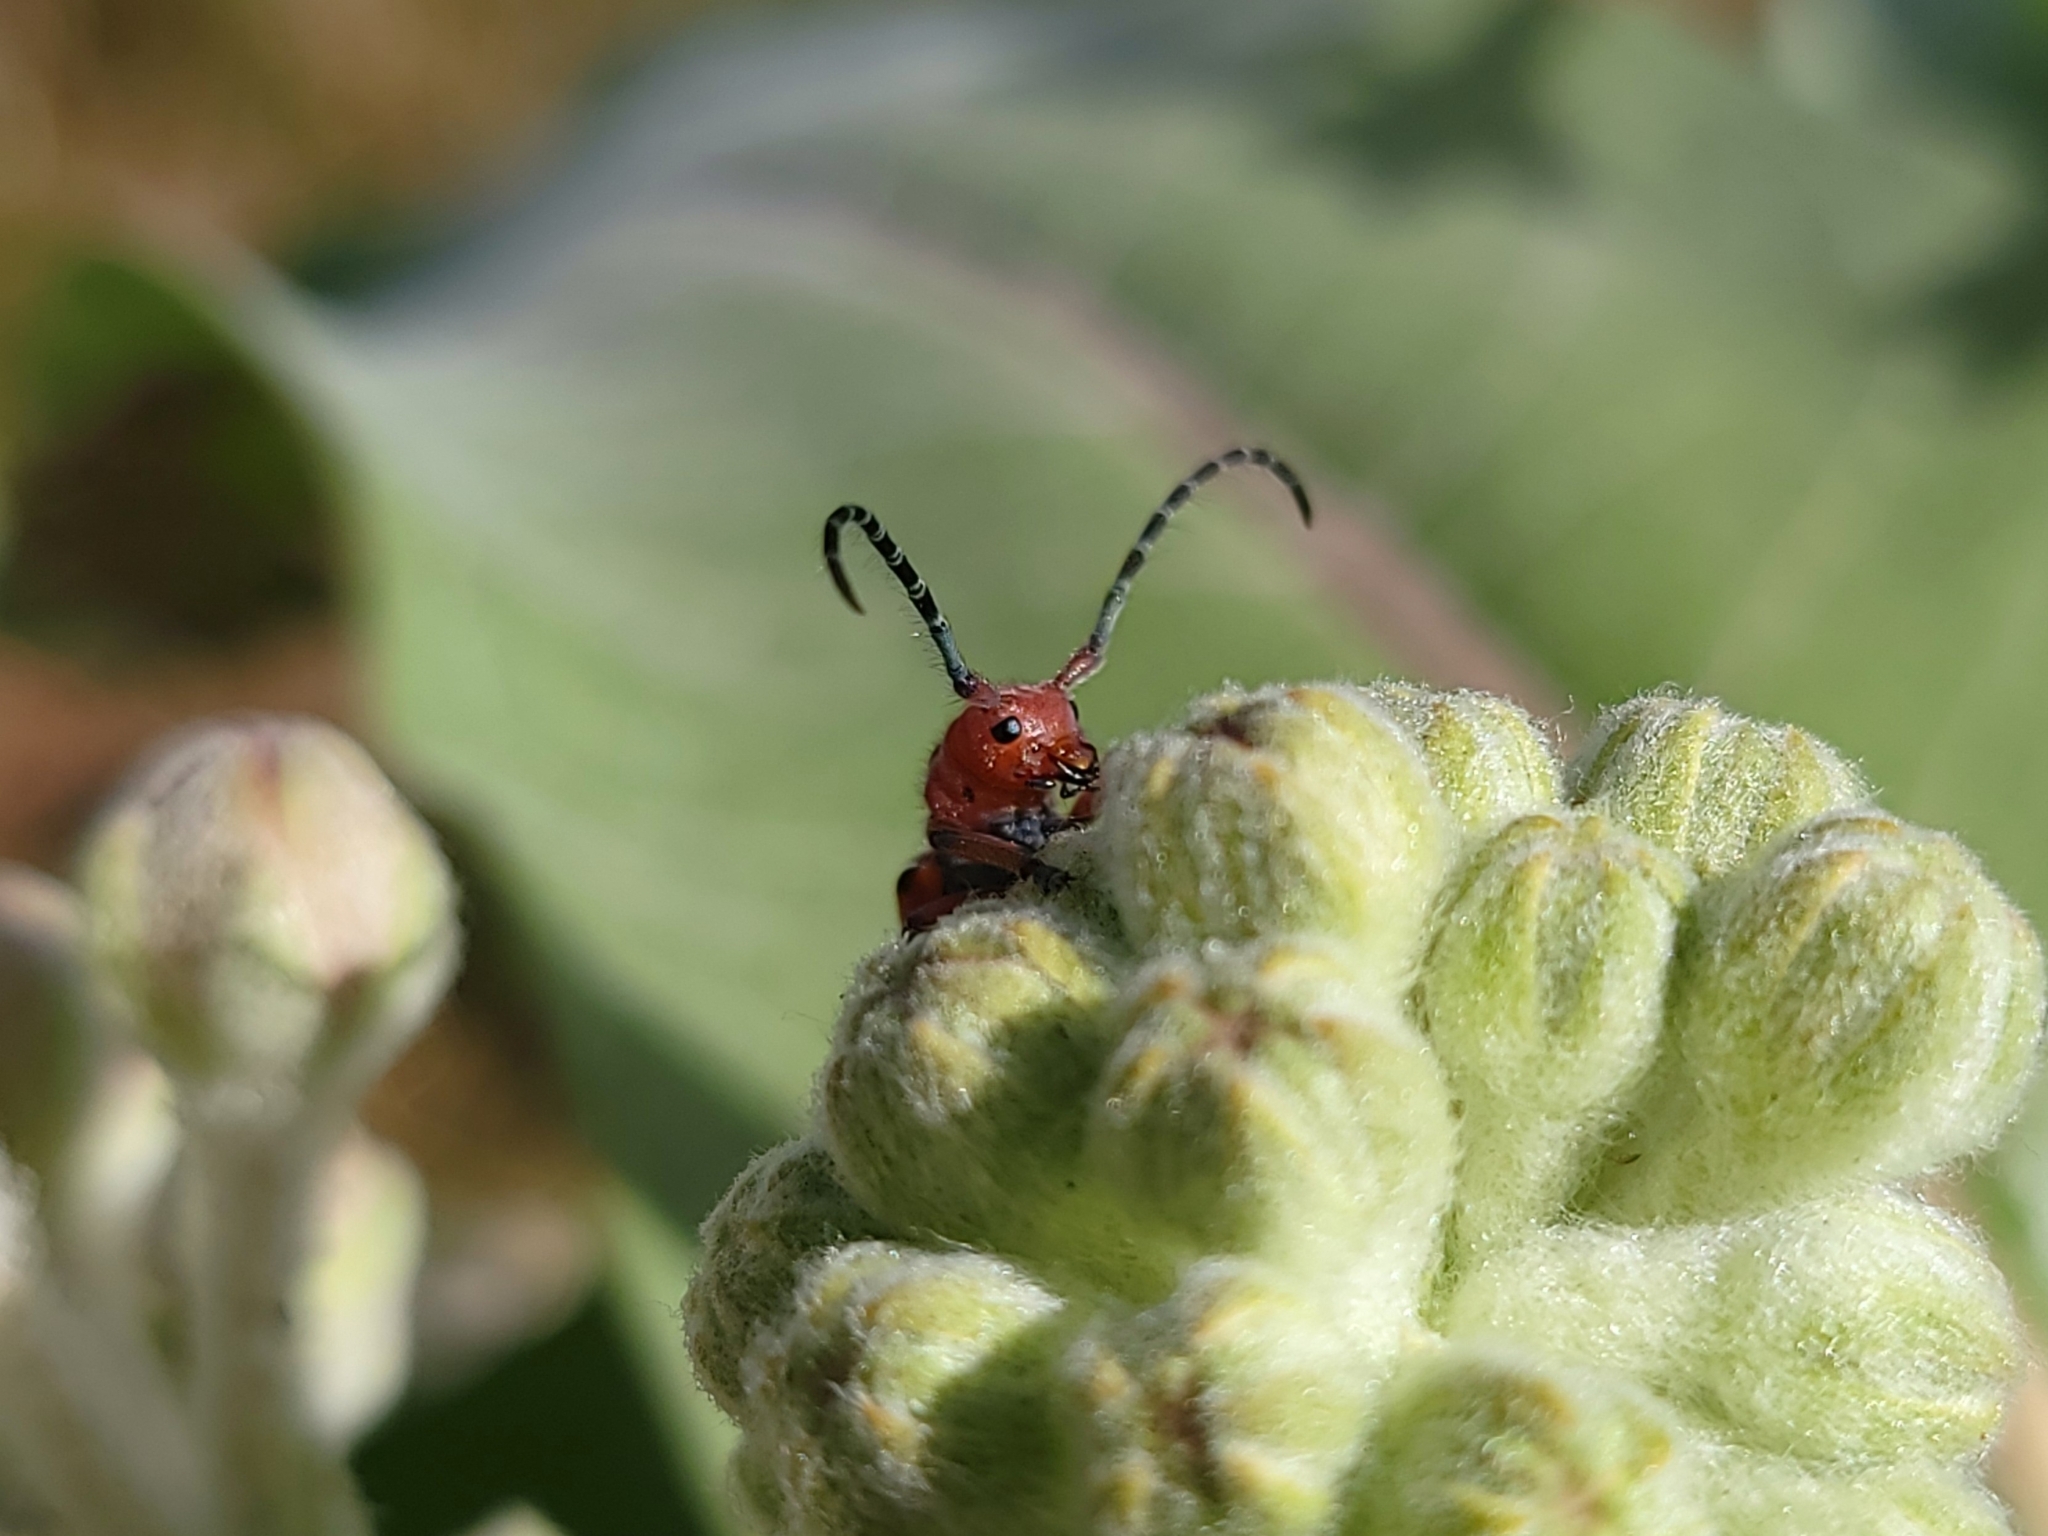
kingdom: Animalia
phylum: Arthropoda
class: Insecta
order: Coleoptera
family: Cerambycidae
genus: Tetraopes
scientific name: Tetraopes femoratus
